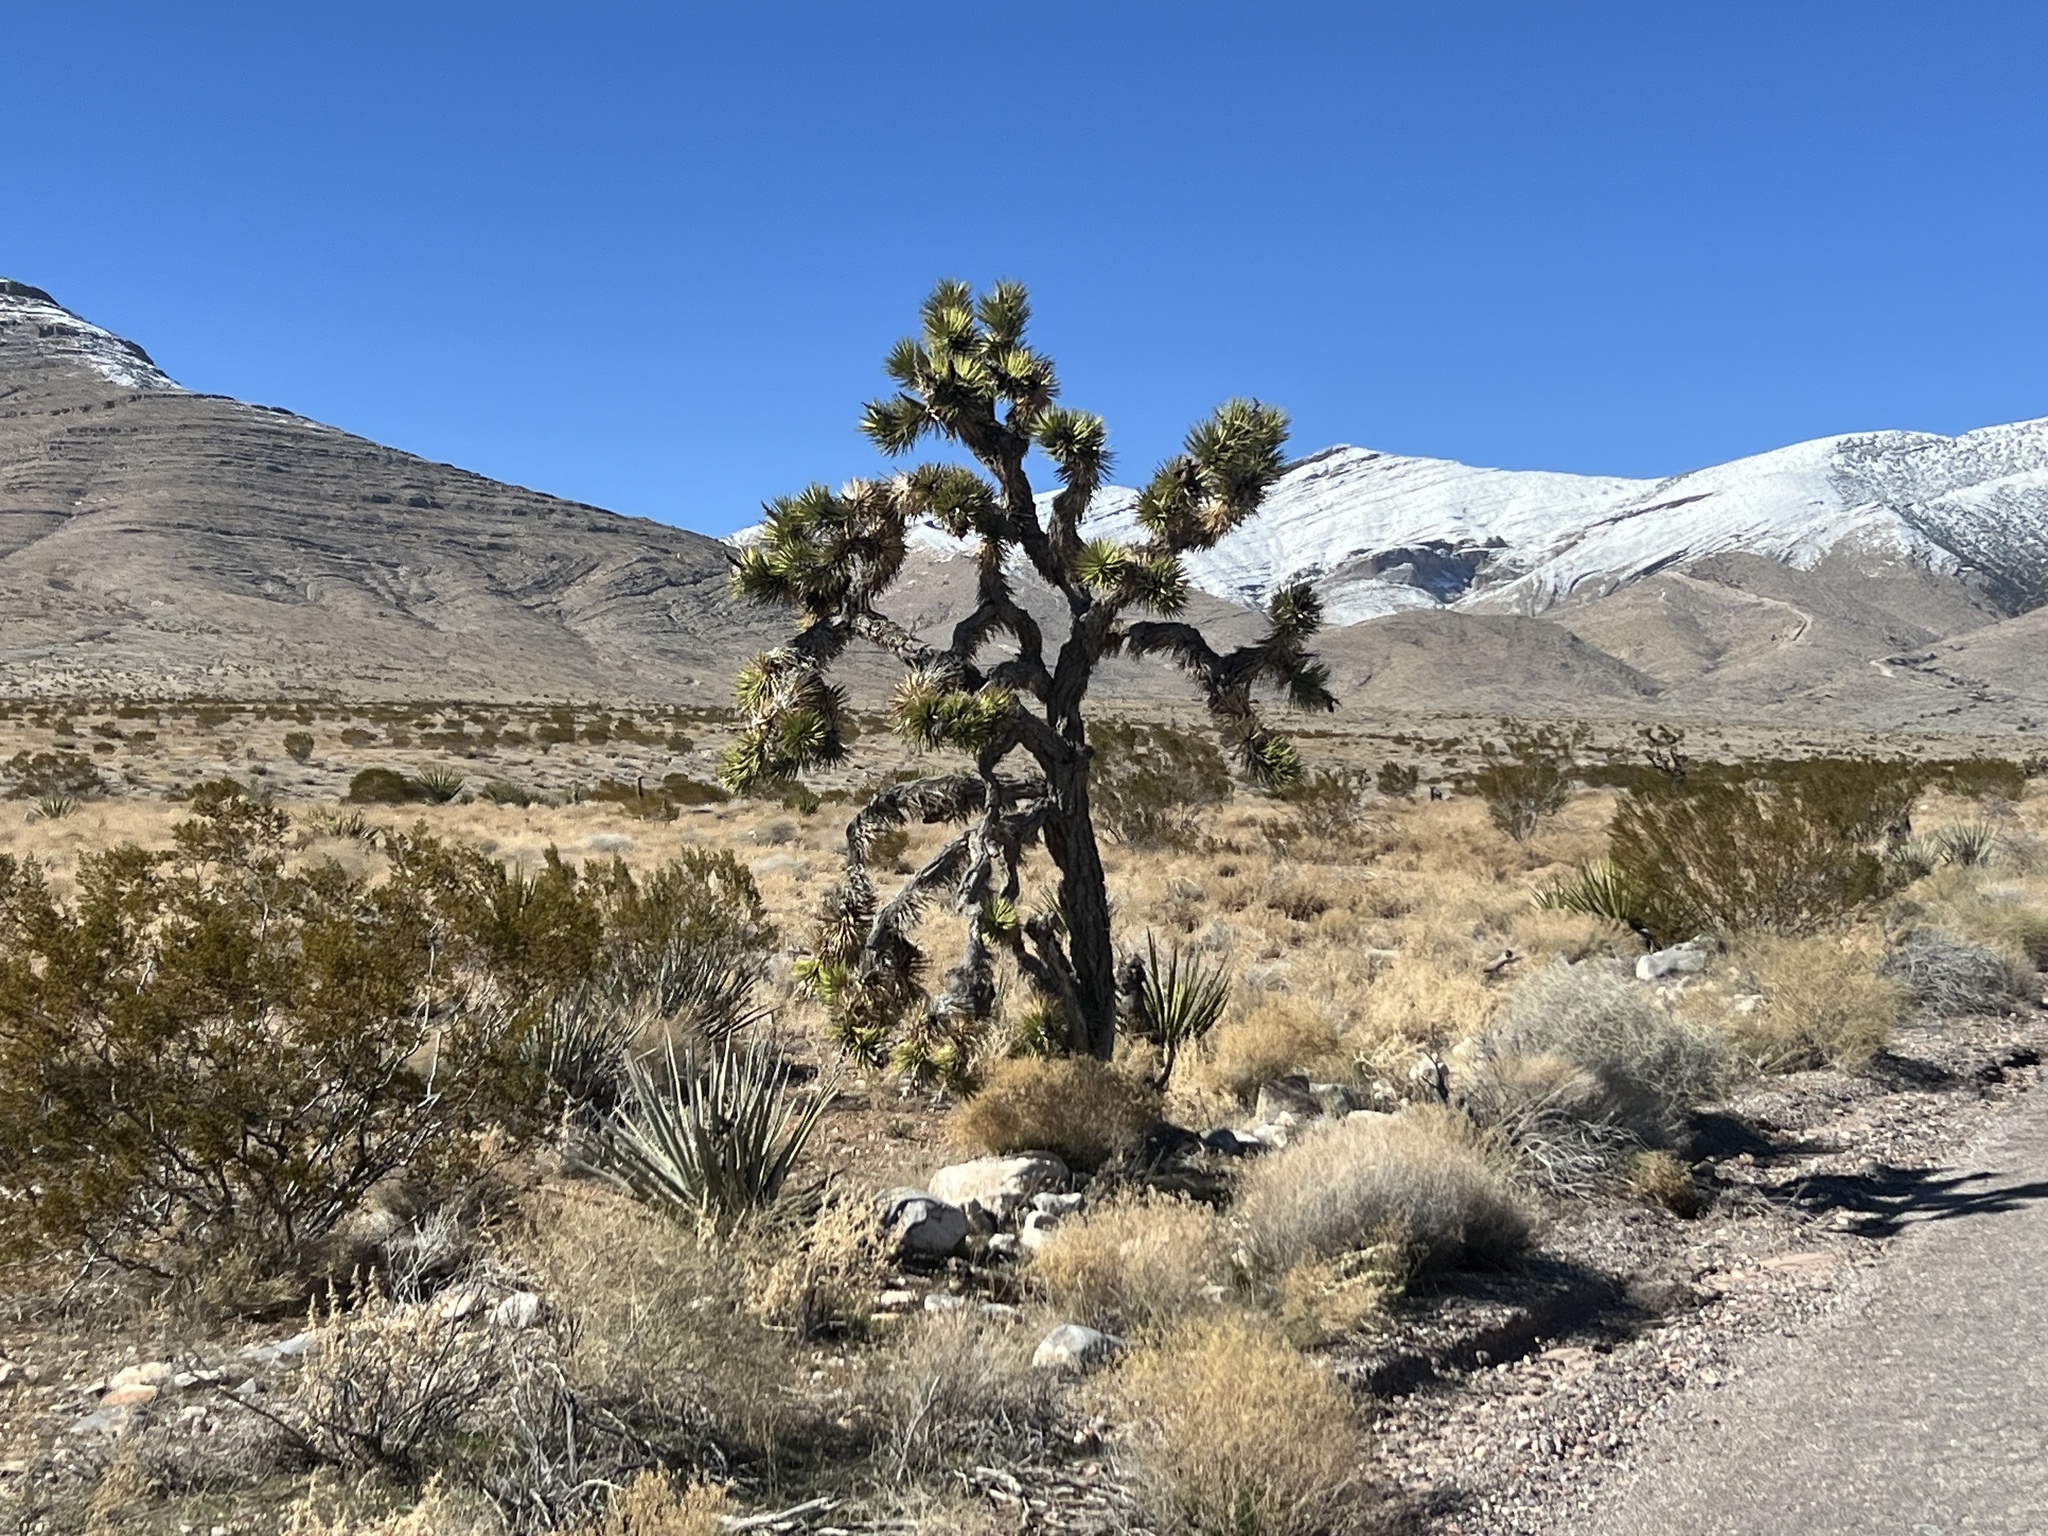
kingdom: Plantae
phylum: Tracheophyta
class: Liliopsida
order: Asparagales
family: Asparagaceae
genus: Yucca
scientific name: Yucca brevifolia
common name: Joshua tree
